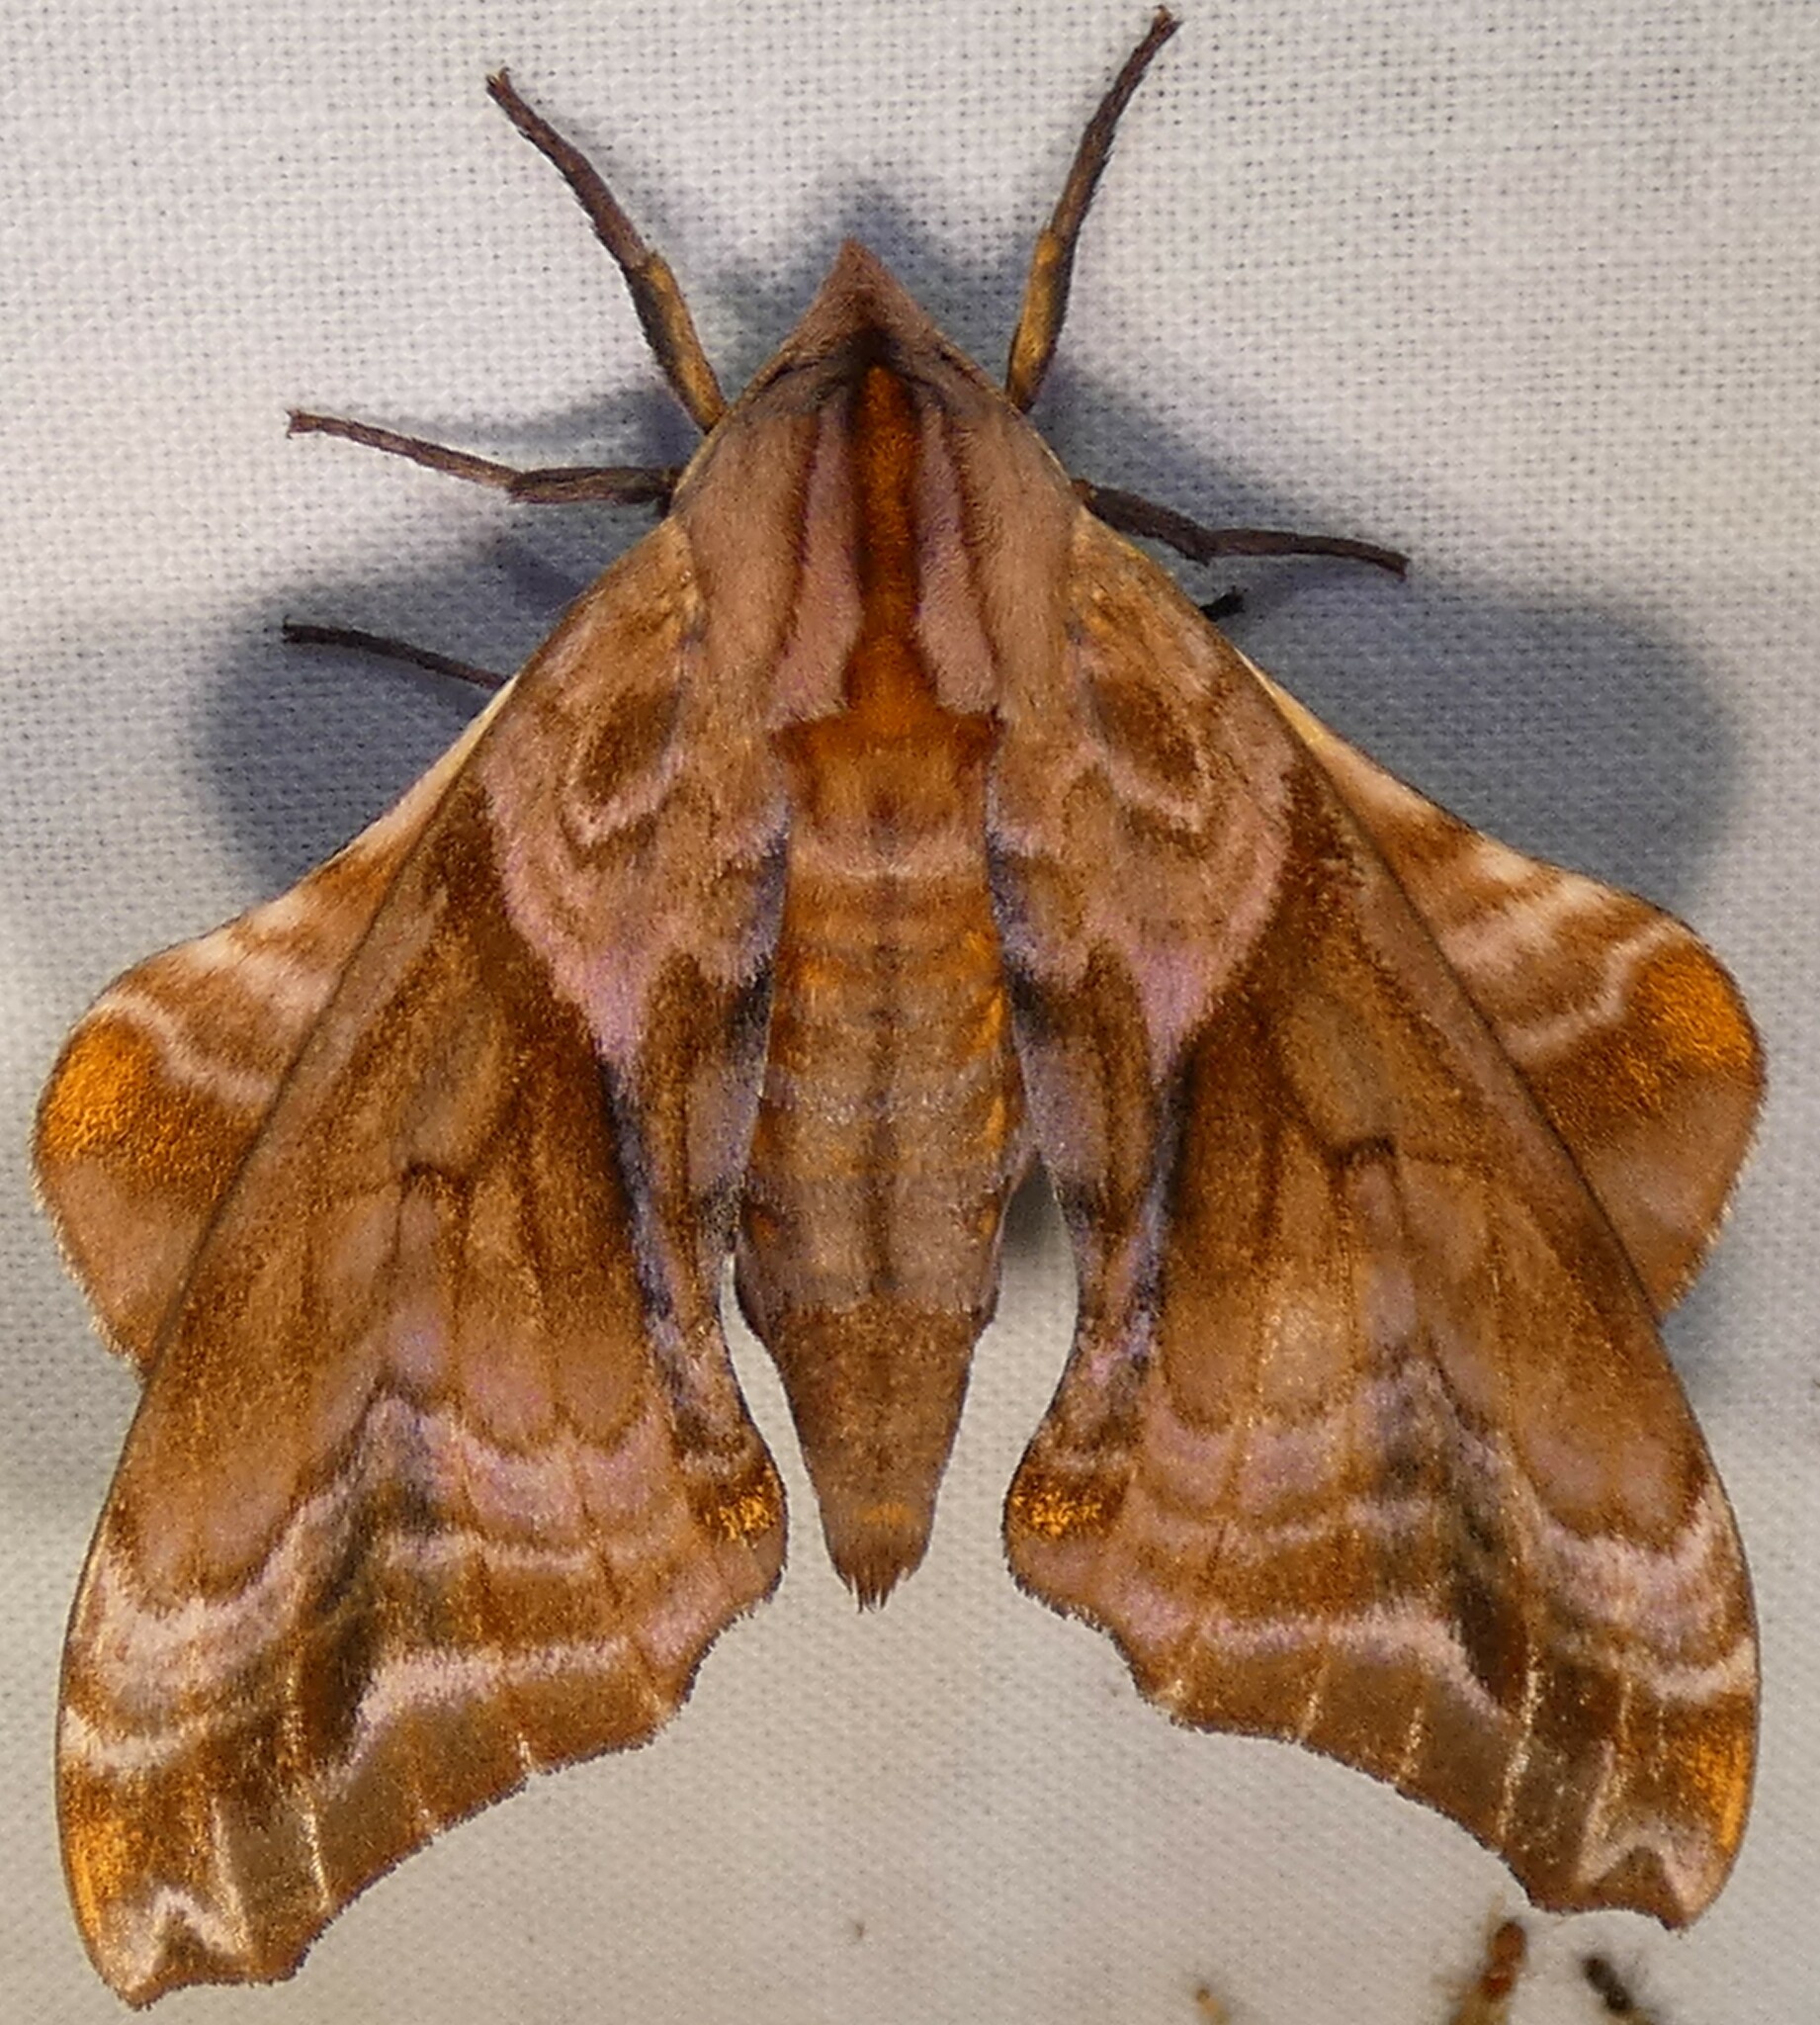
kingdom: Animalia
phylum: Arthropoda
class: Insecta
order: Lepidoptera
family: Sphingidae
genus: Paonias
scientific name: Paonias myops
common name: Small-eyed sphinx
